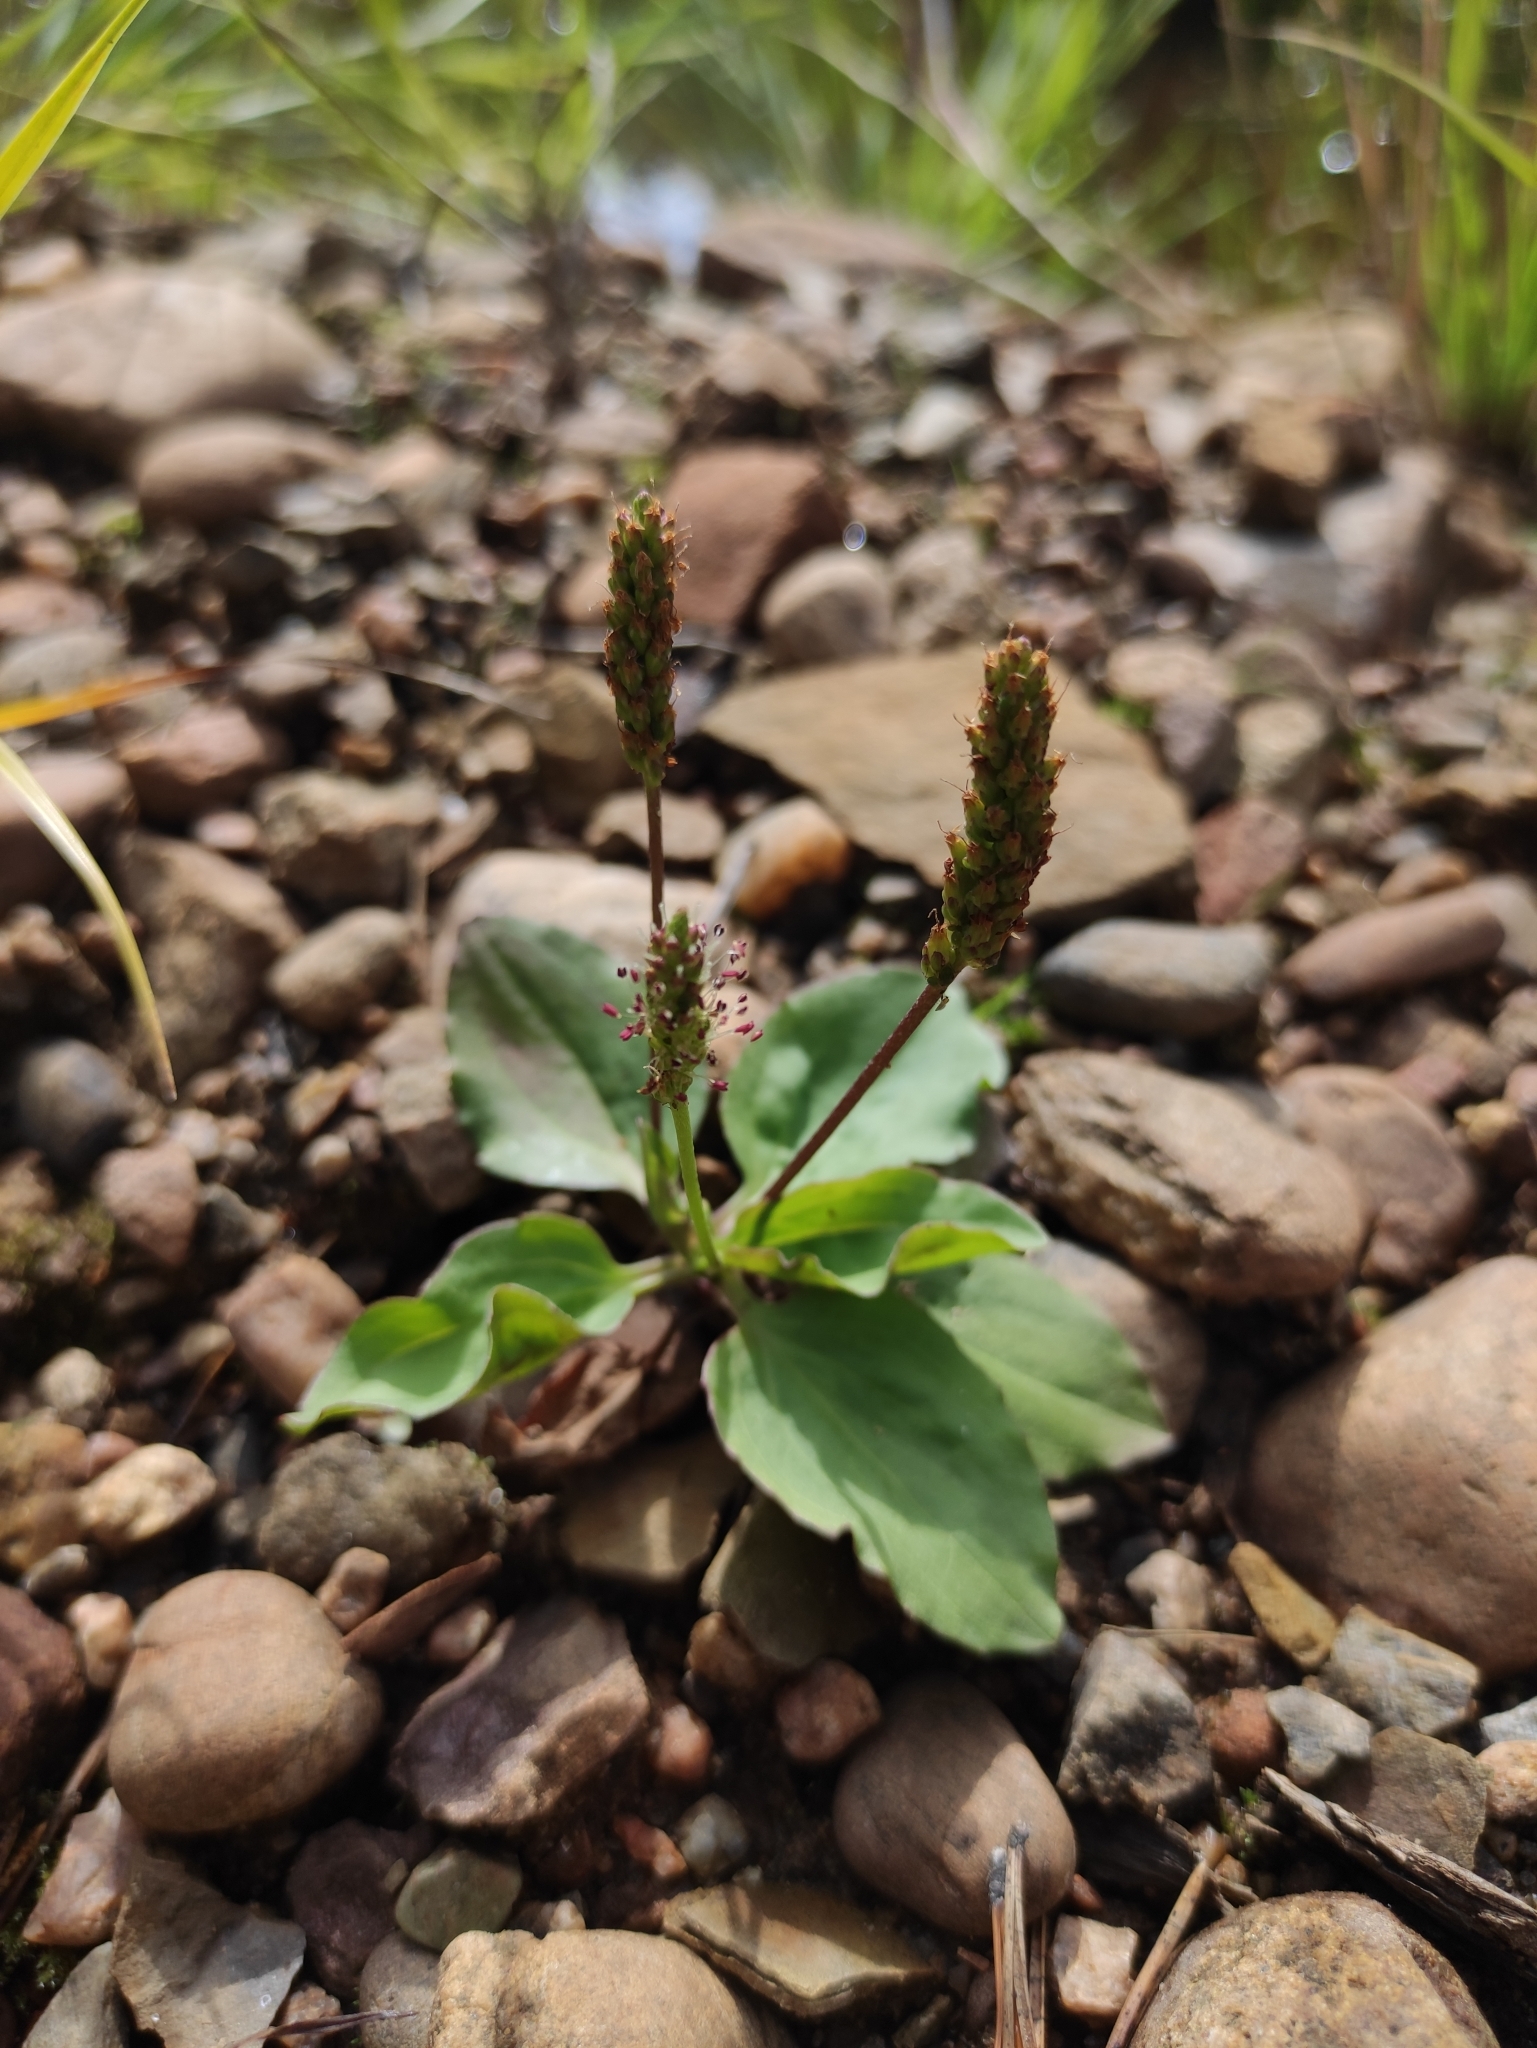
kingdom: Plantae
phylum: Tracheophyta
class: Magnoliopsida
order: Lamiales
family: Plantaginaceae
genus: Plantago
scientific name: Plantago major
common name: Common plantain
